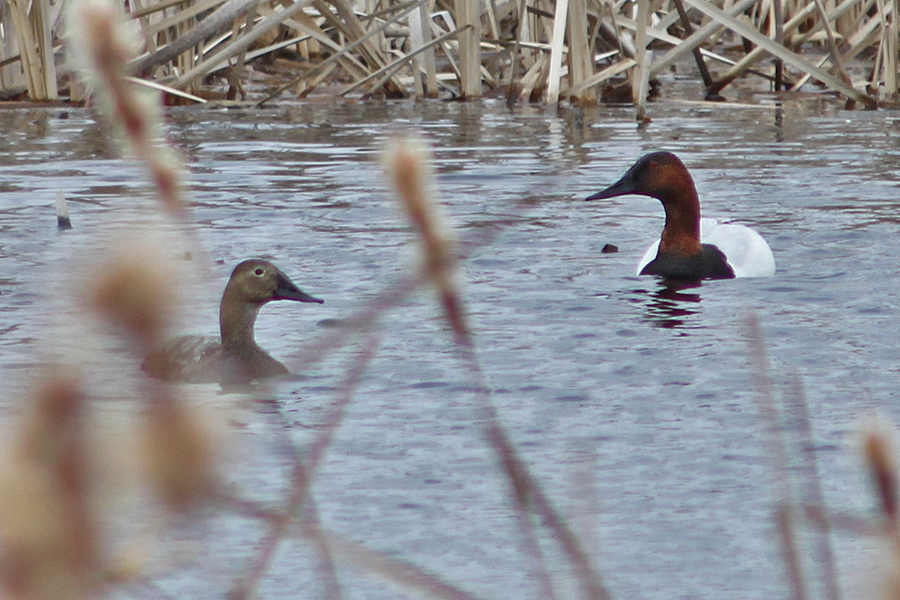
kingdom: Animalia
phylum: Chordata
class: Aves
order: Anseriformes
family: Anatidae
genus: Aythya
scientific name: Aythya valisineria
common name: Canvasback
